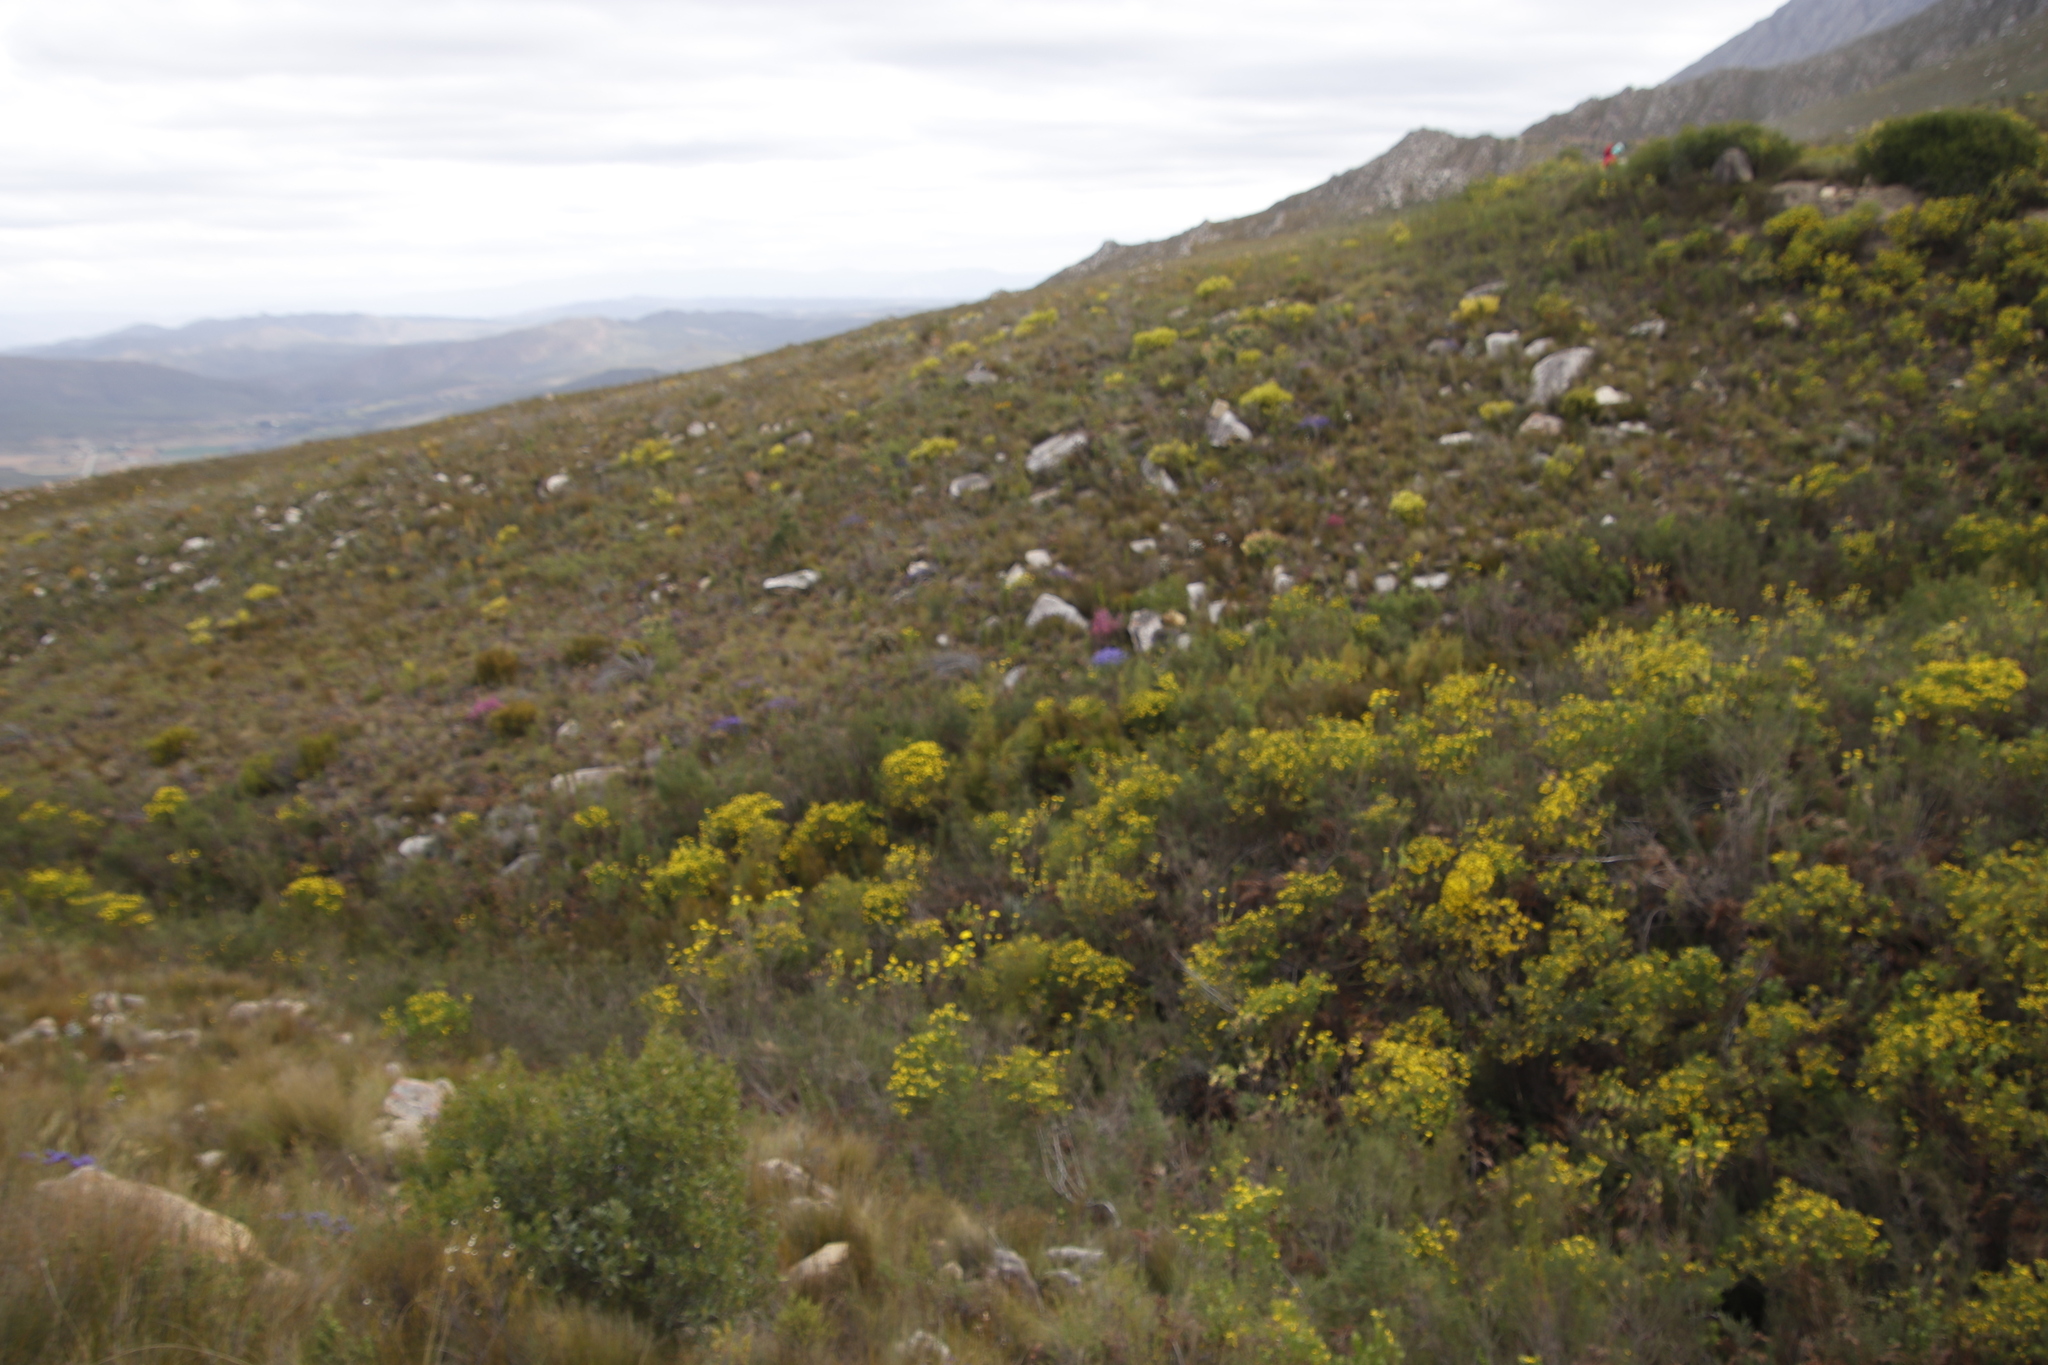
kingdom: Plantae
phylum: Tracheophyta
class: Liliopsida
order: Asparagales
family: Iridaceae
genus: Nivenia
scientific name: Nivenia binata
